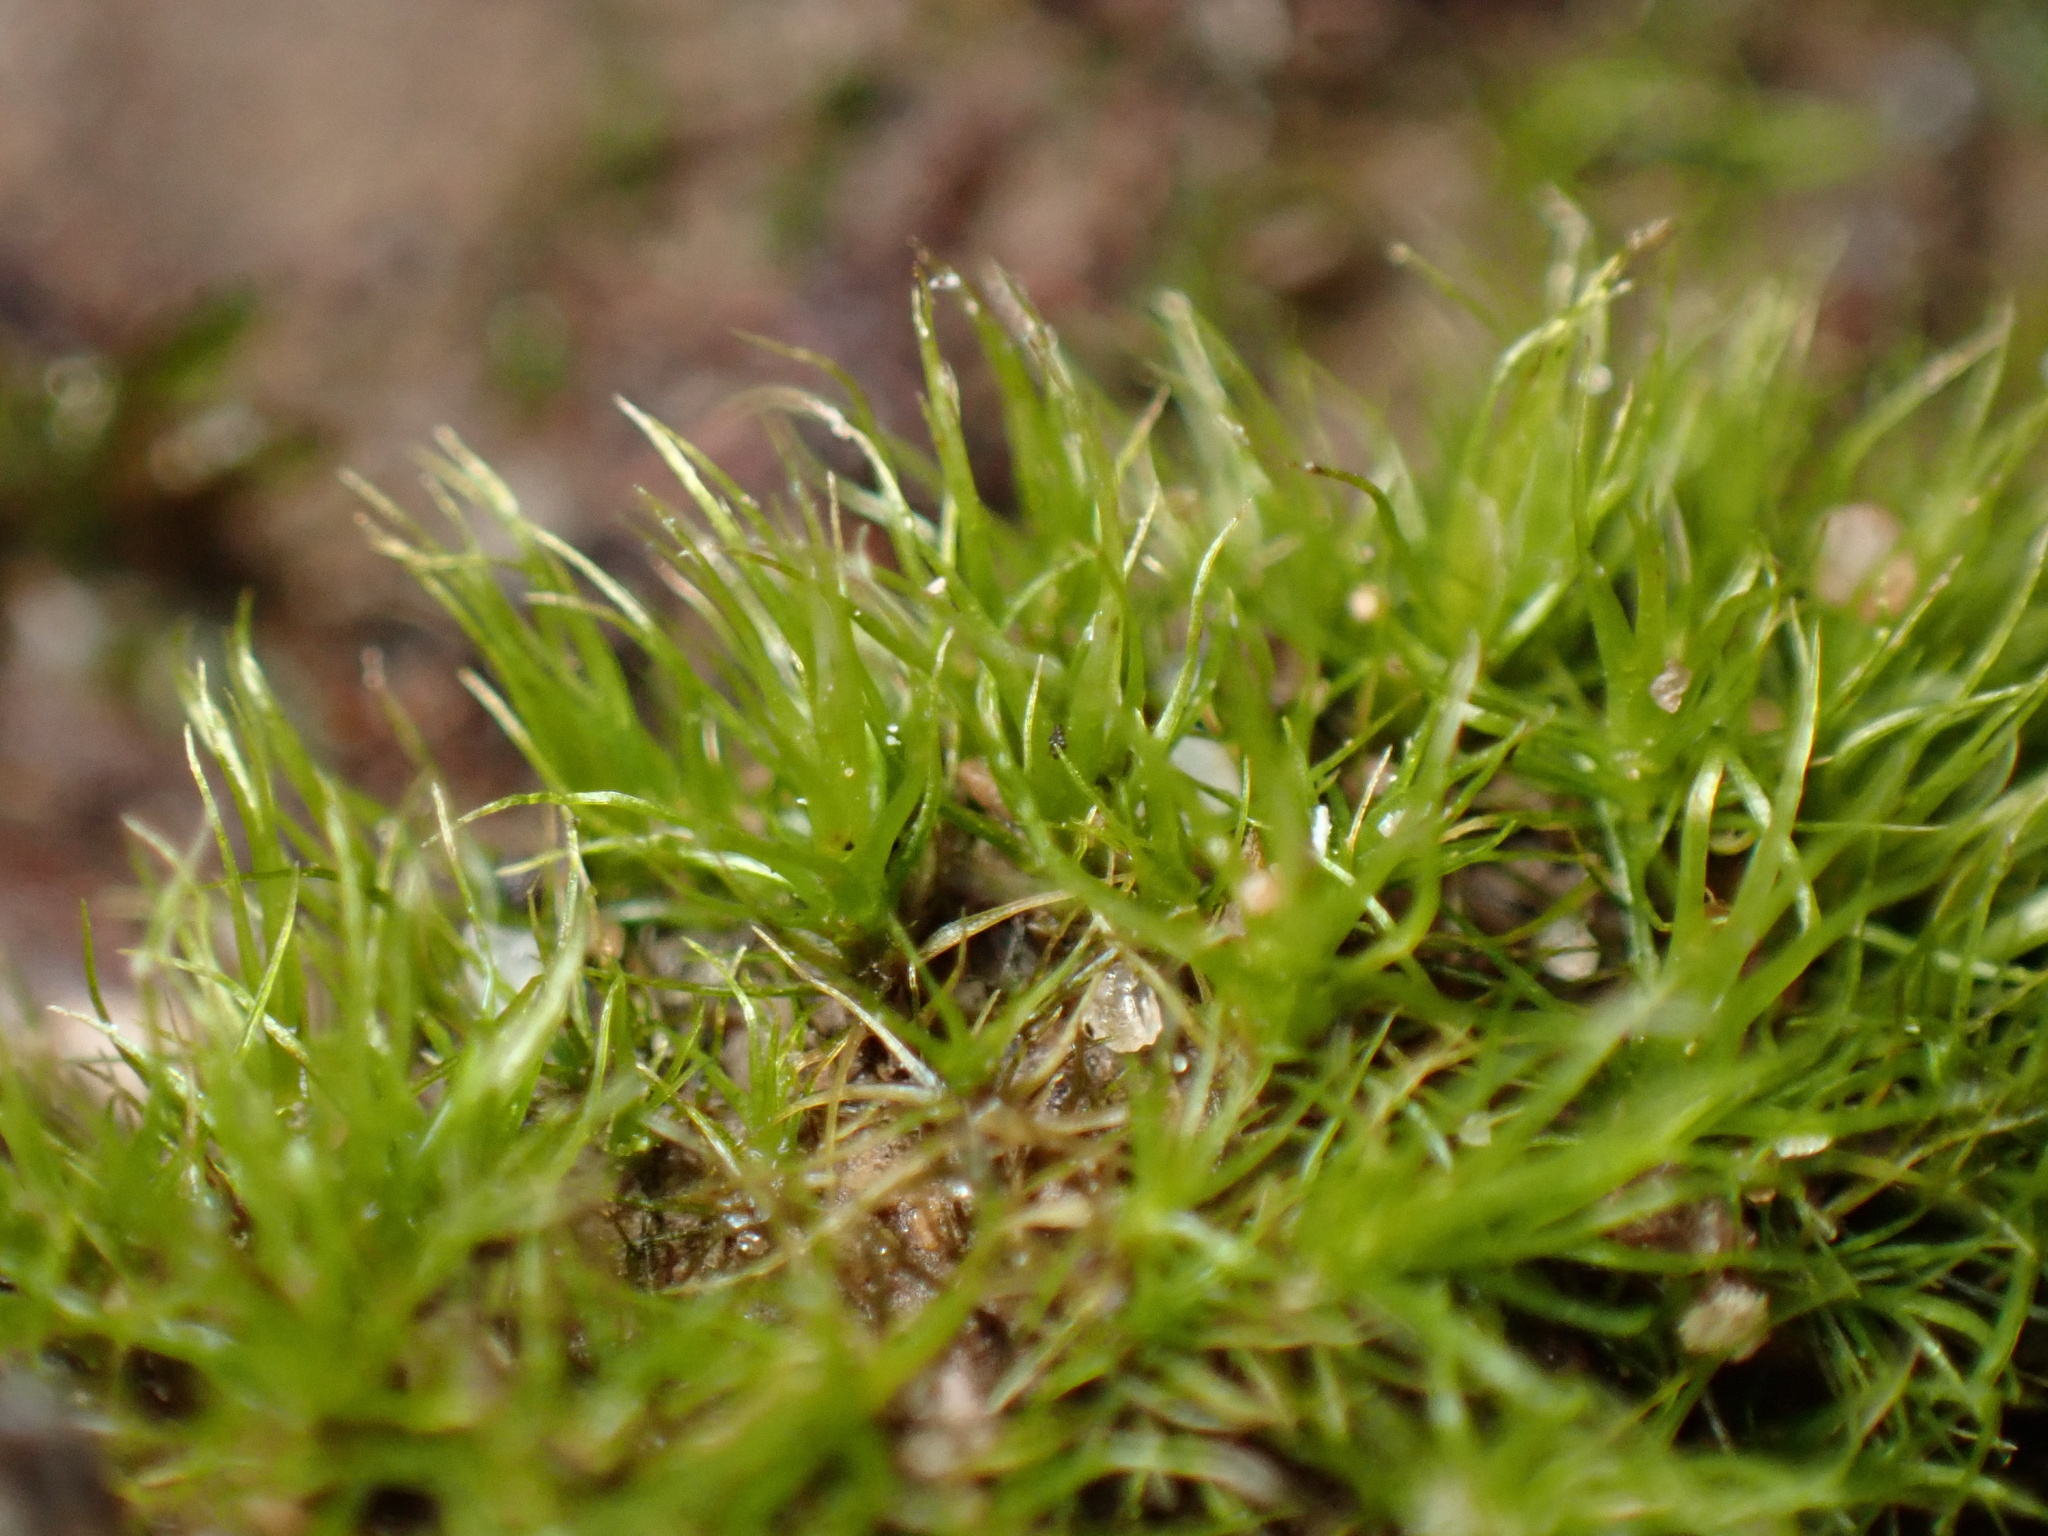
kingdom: Plantae
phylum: Bryophyta
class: Bryopsida
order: Dicranales
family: Ditrichaceae
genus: Ditrichum
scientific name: Ditrichum pallidum
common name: Pale cow-hair moss
